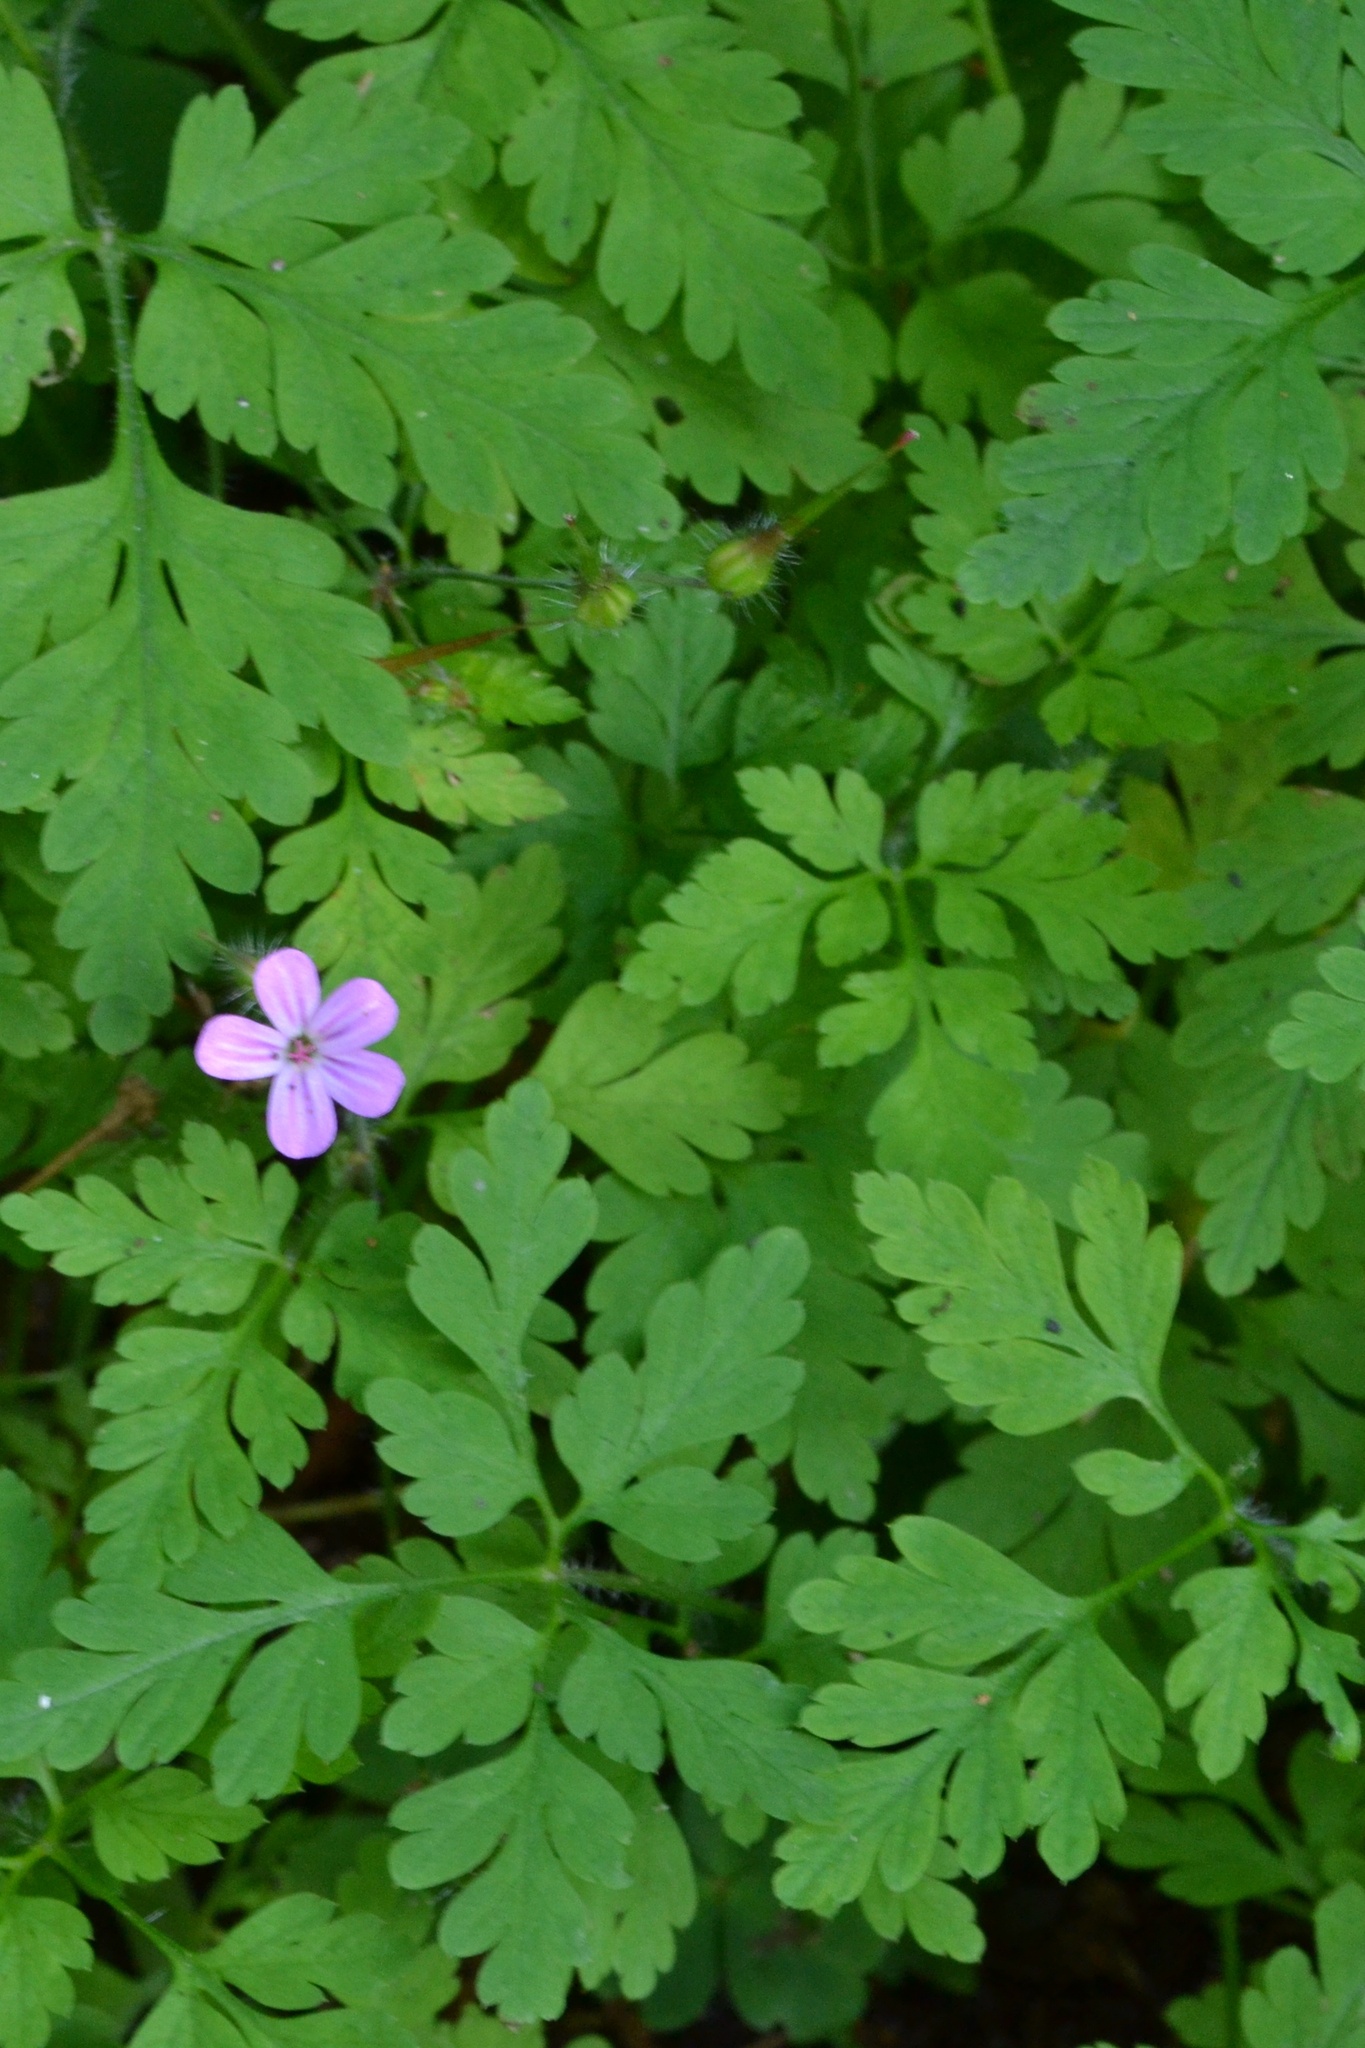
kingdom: Plantae
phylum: Tracheophyta
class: Magnoliopsida
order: Geraniales
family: Geraniaceae
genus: Geranium
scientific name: Geranium robertianum
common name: Herb-robert
